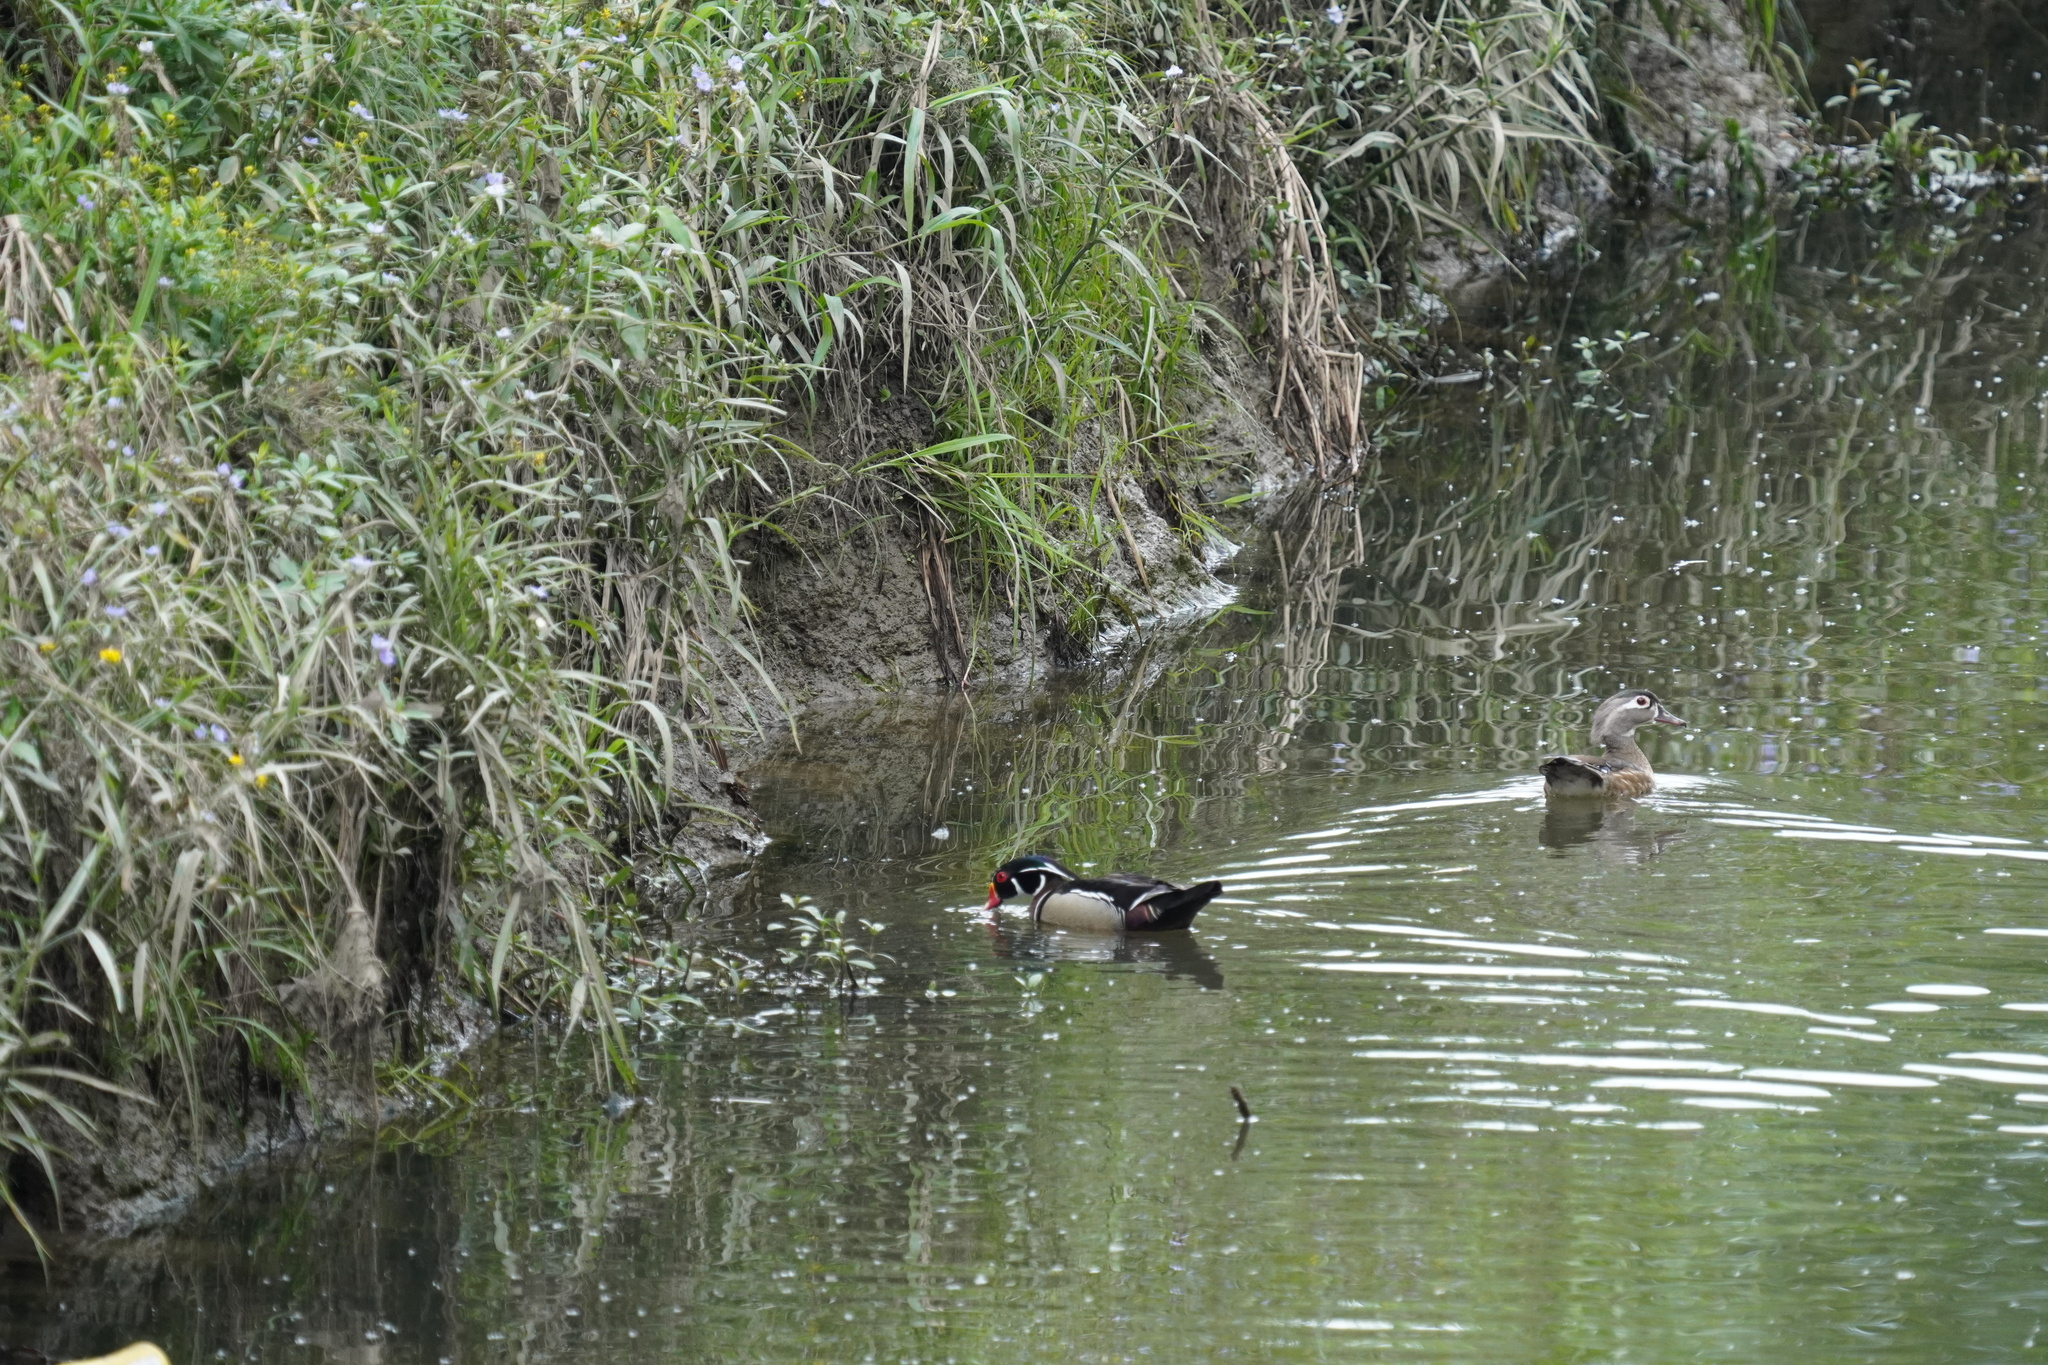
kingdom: Animalia
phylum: Chordata
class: Aves
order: Anseriformes
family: Anatidae
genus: Aix
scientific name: Aix sponsa
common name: Wood duck
